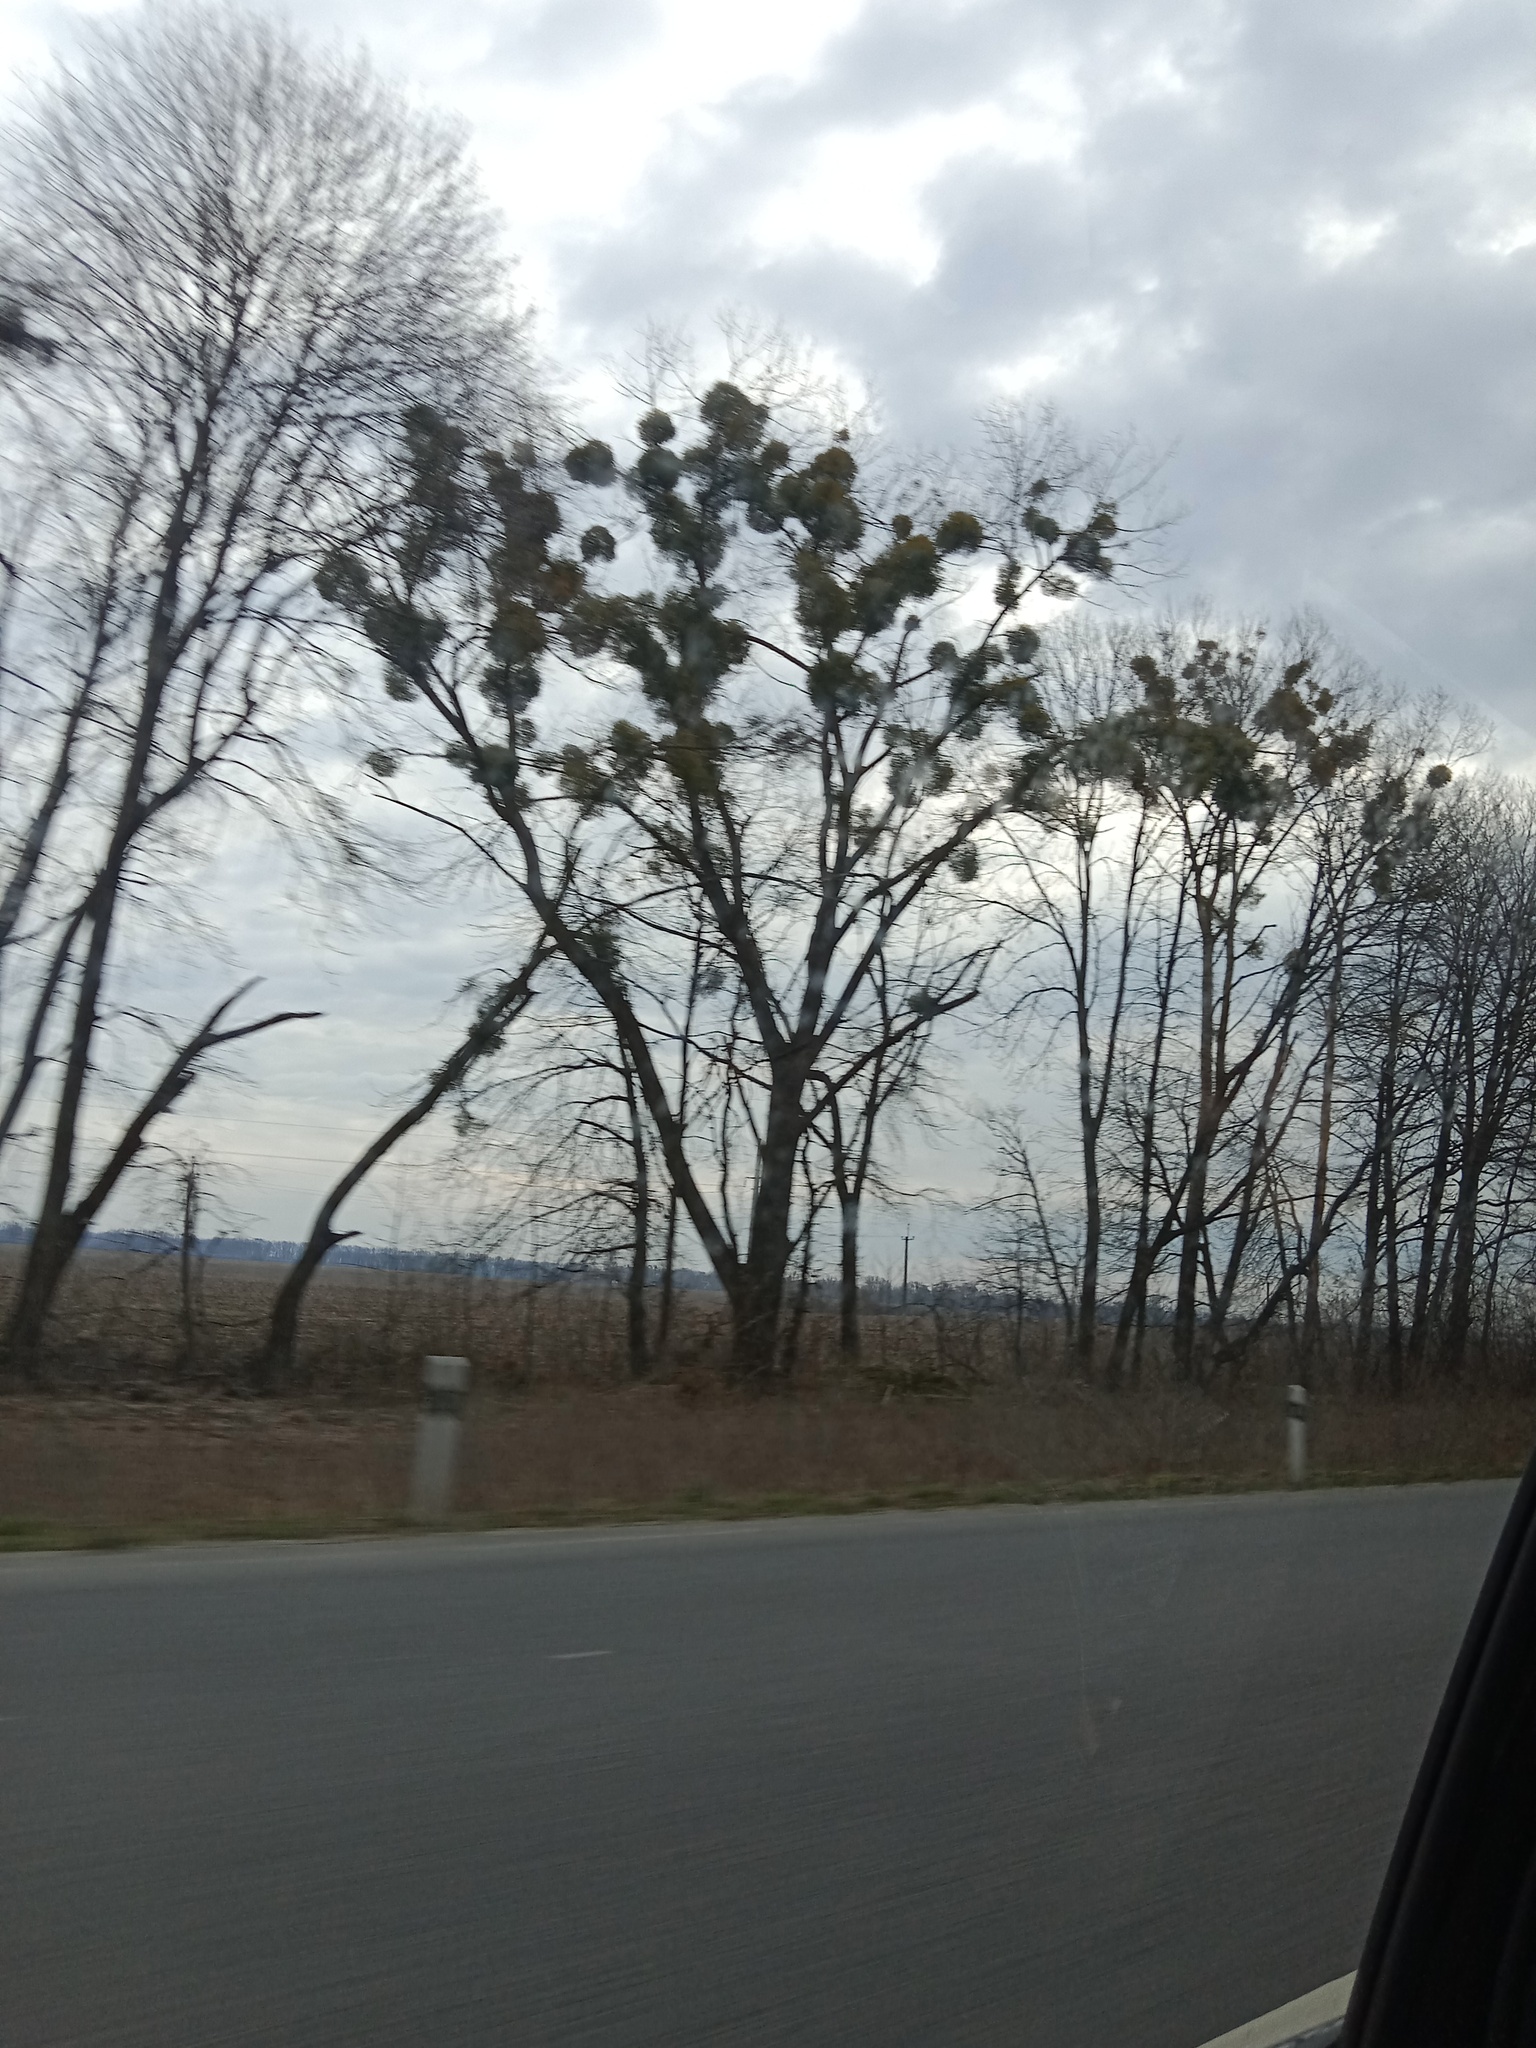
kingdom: Plantae
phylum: Tracheophyta
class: Magnoliopsida
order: Santalales
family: Viscaceae
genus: Viscum
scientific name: Viscum album
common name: Mistletoe
